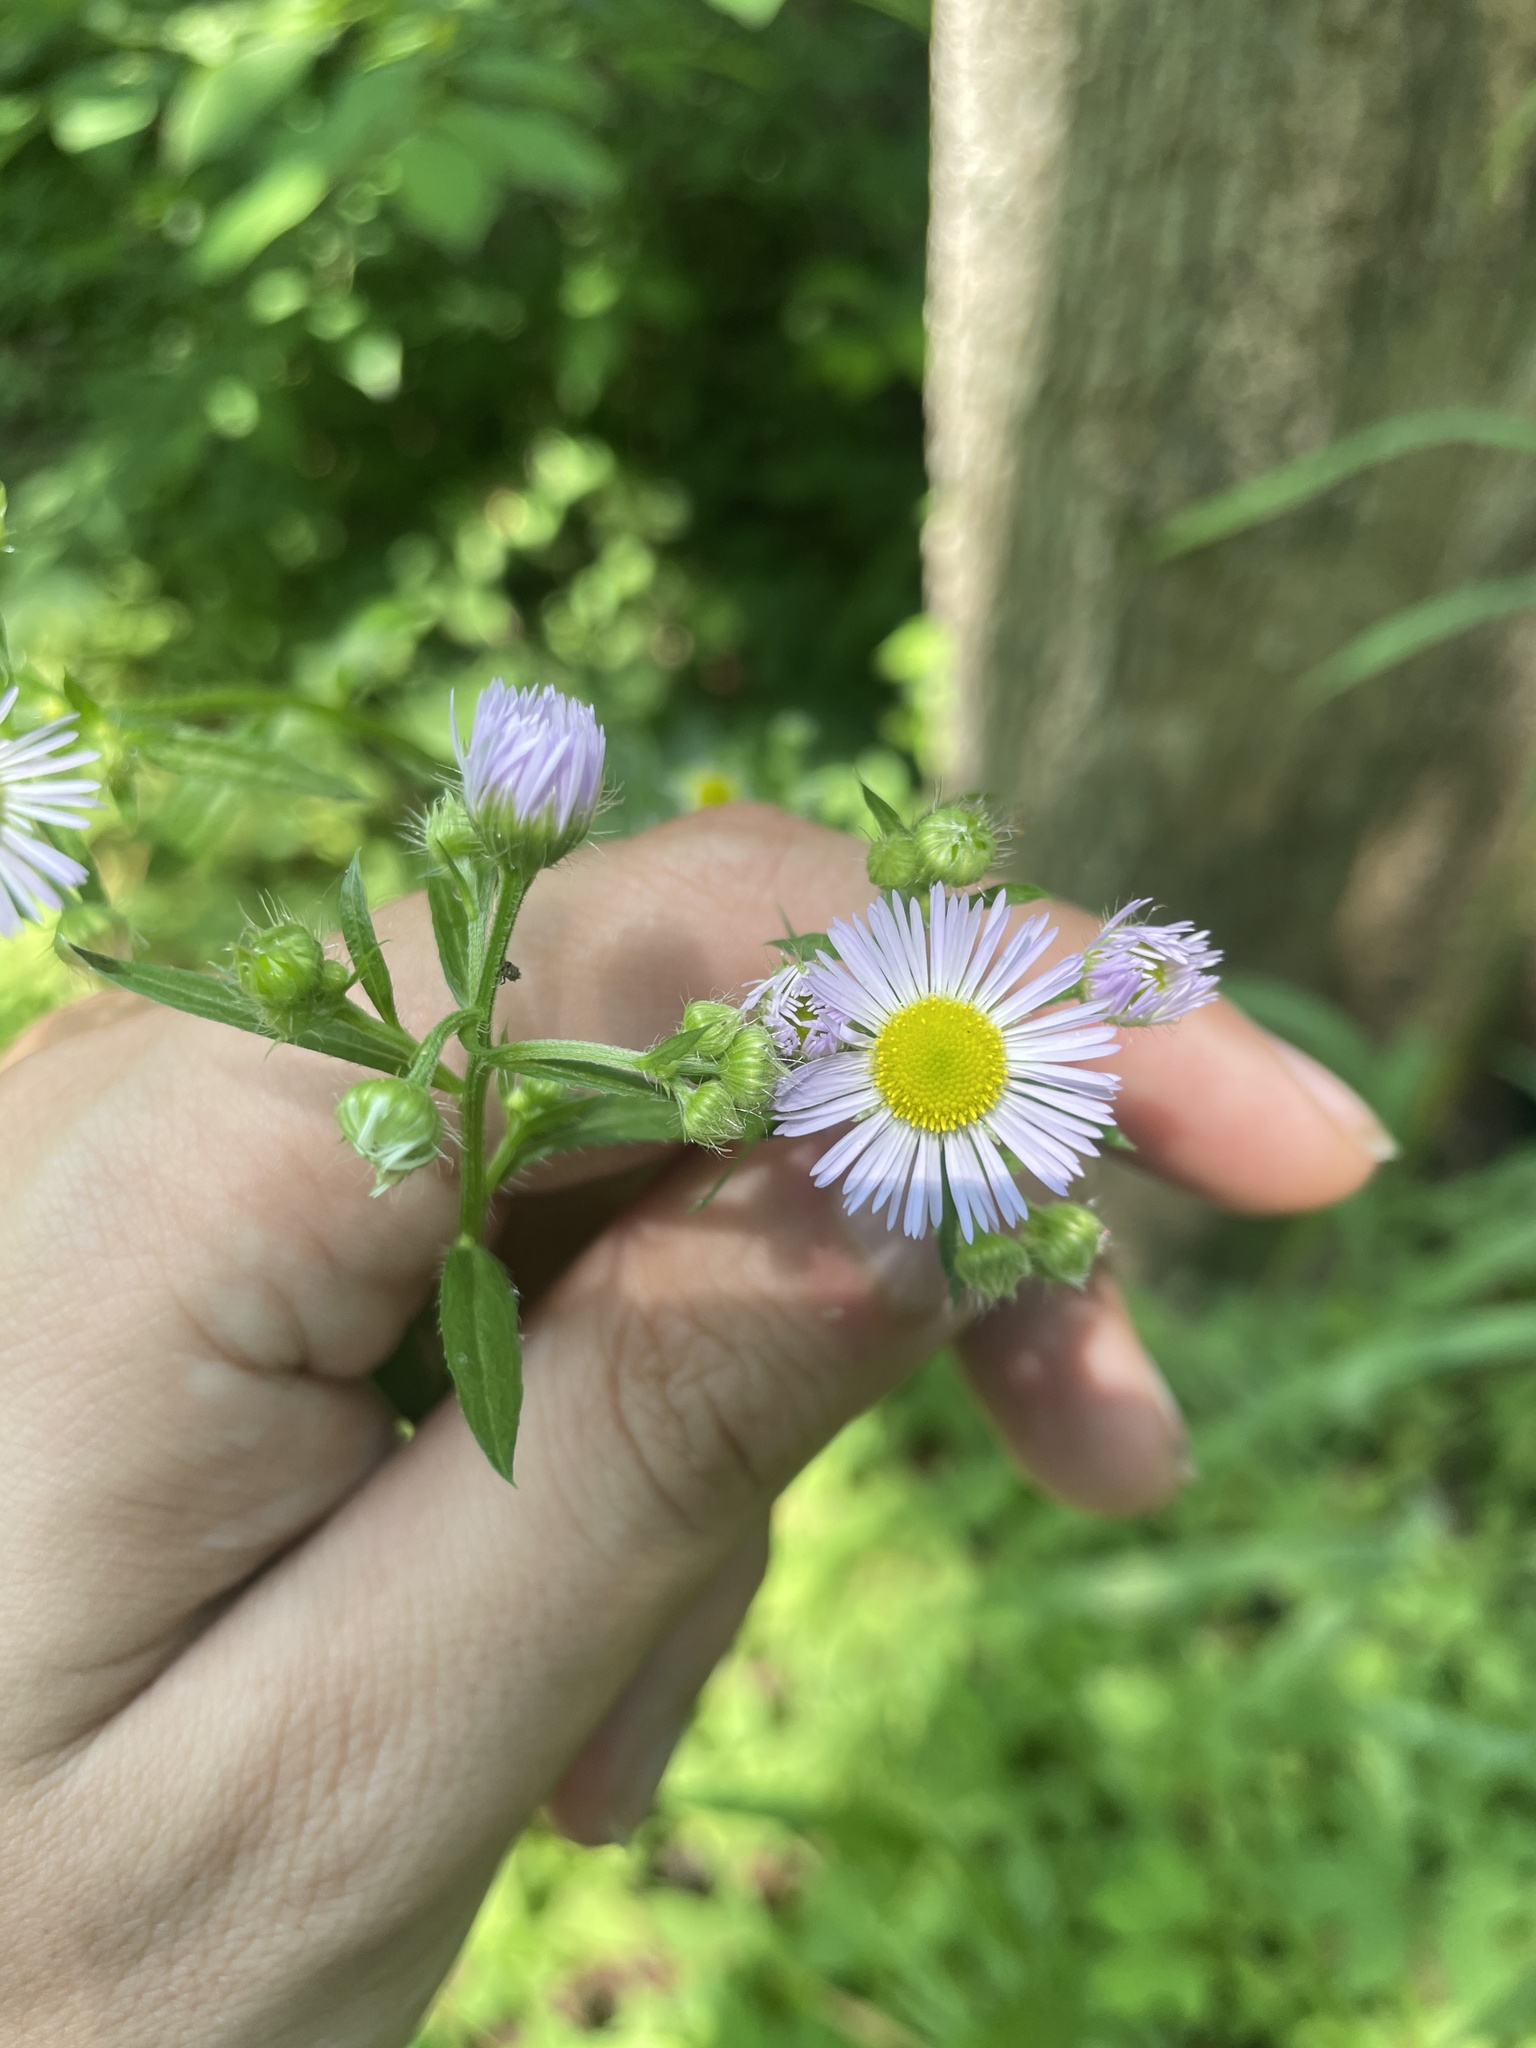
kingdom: Plantae
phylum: Tracheophyta
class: Magnoliopsida
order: Asterales
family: Asteraceae
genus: Erigeron
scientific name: Erigeron annuus
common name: Tall fleabane
